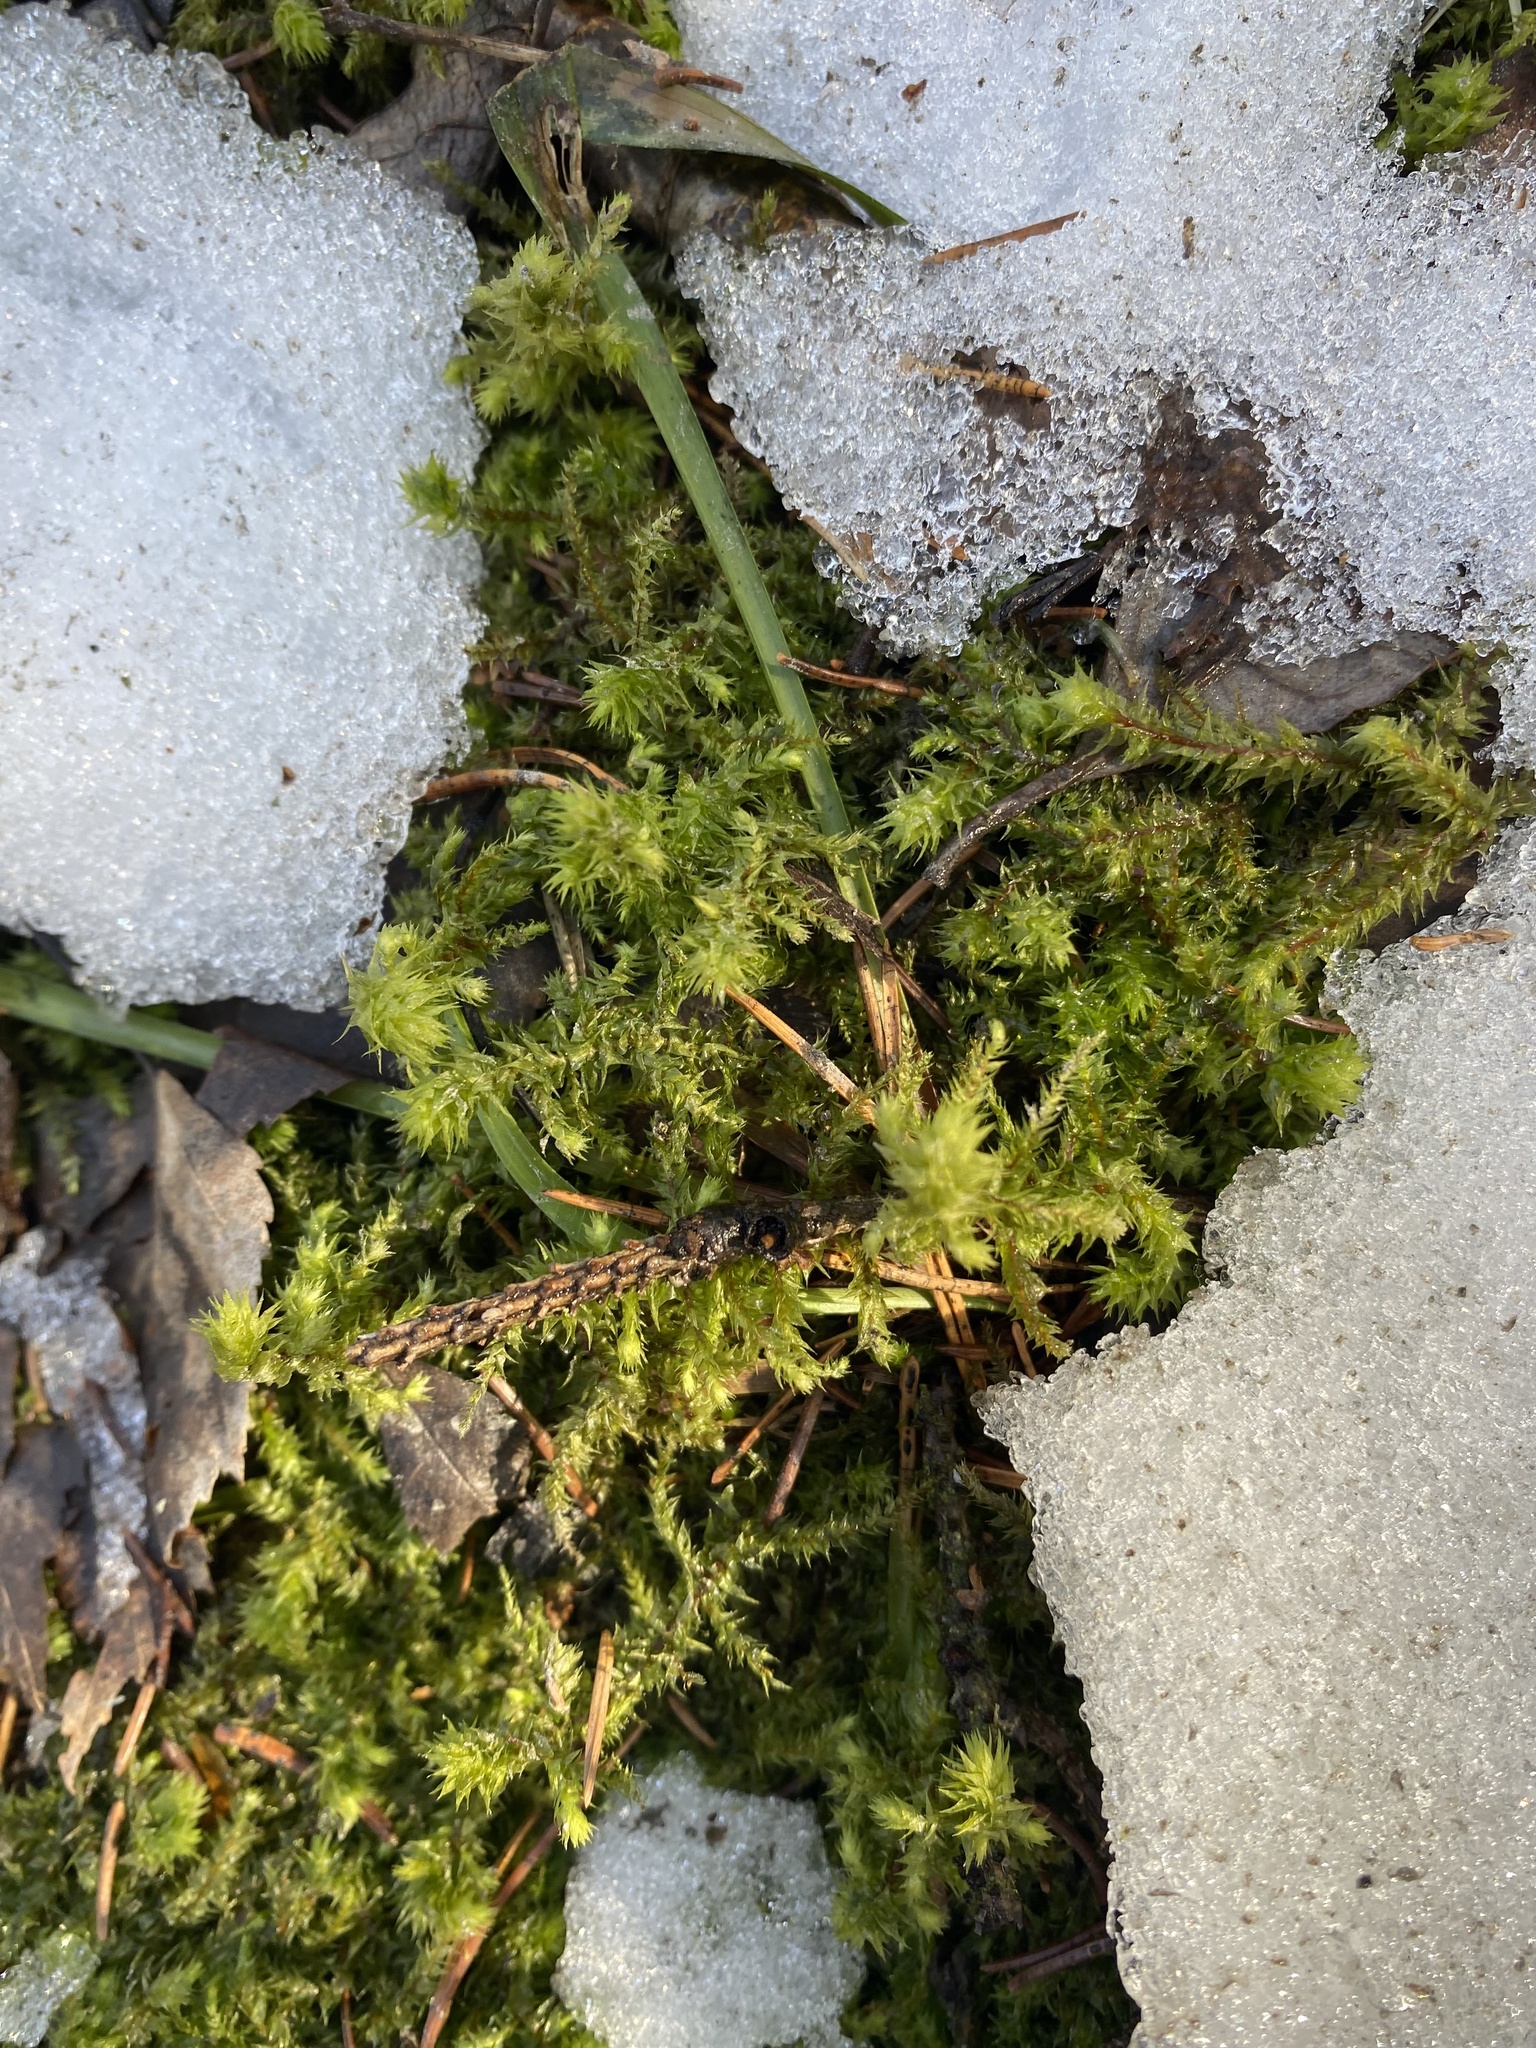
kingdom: Plantae
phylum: Bryophyta
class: Bryopsida
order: Hypnales
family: Hylocomiaceae
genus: Hylocomiadelphus
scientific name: Hylocomiadelphus triquetrus
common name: Rough goose neck moss
